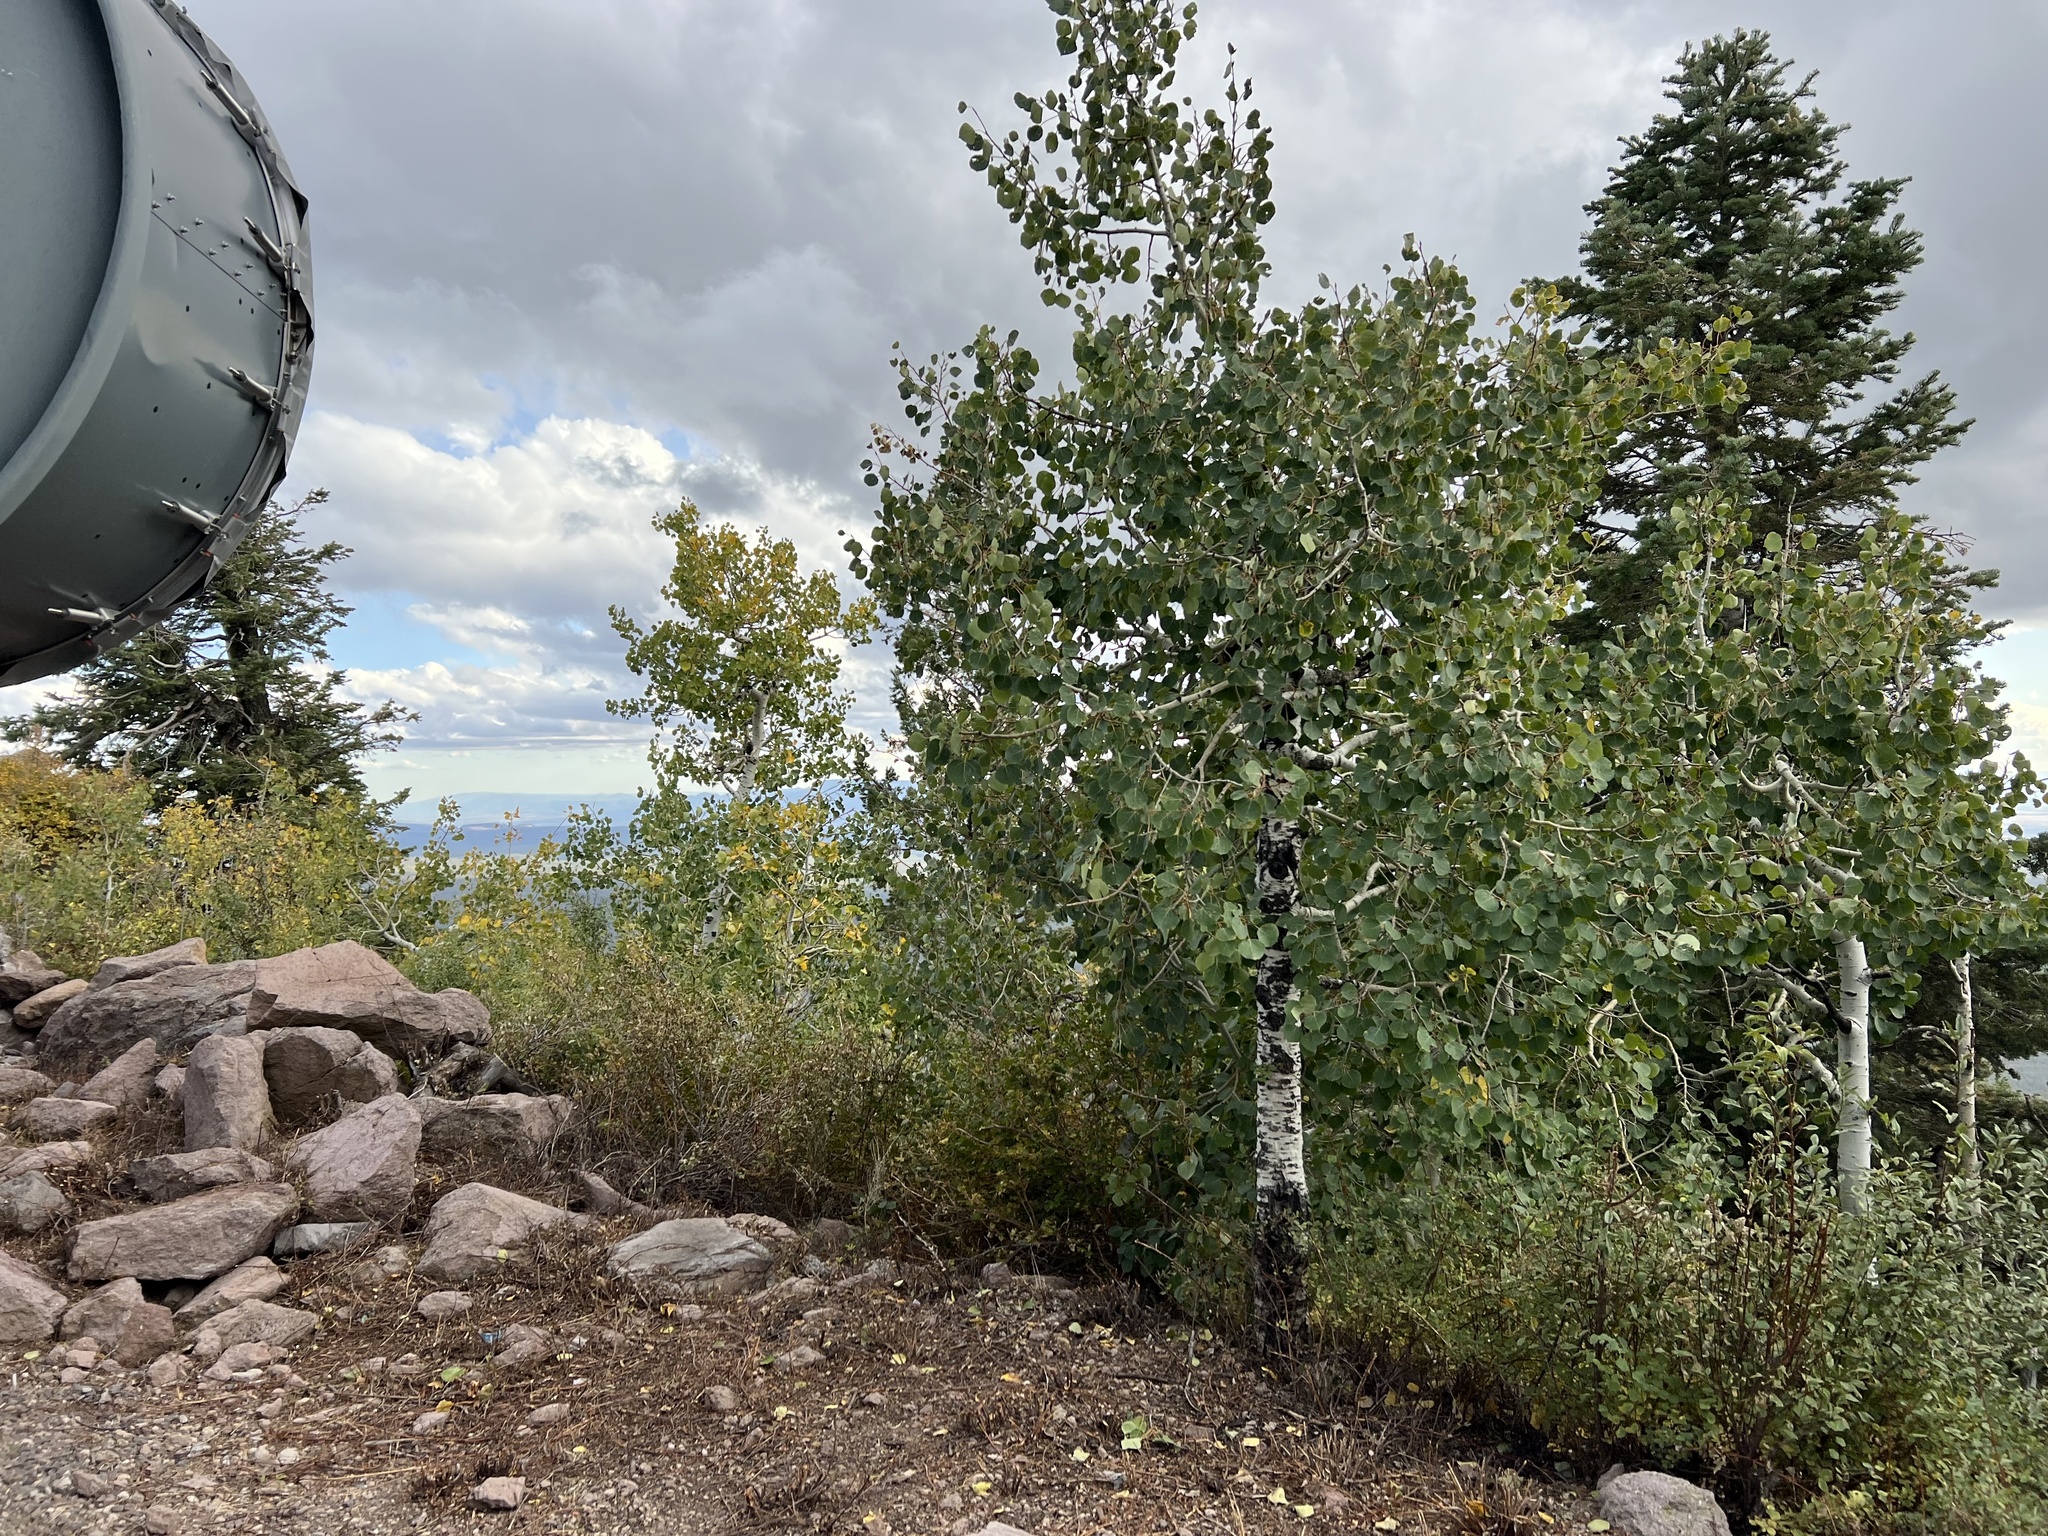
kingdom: Plantae
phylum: Tracheophyta
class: Magnoliopsida
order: Malpighiales
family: Salicaceae
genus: Populus
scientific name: Populus tremuloides
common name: Quaking aspen
